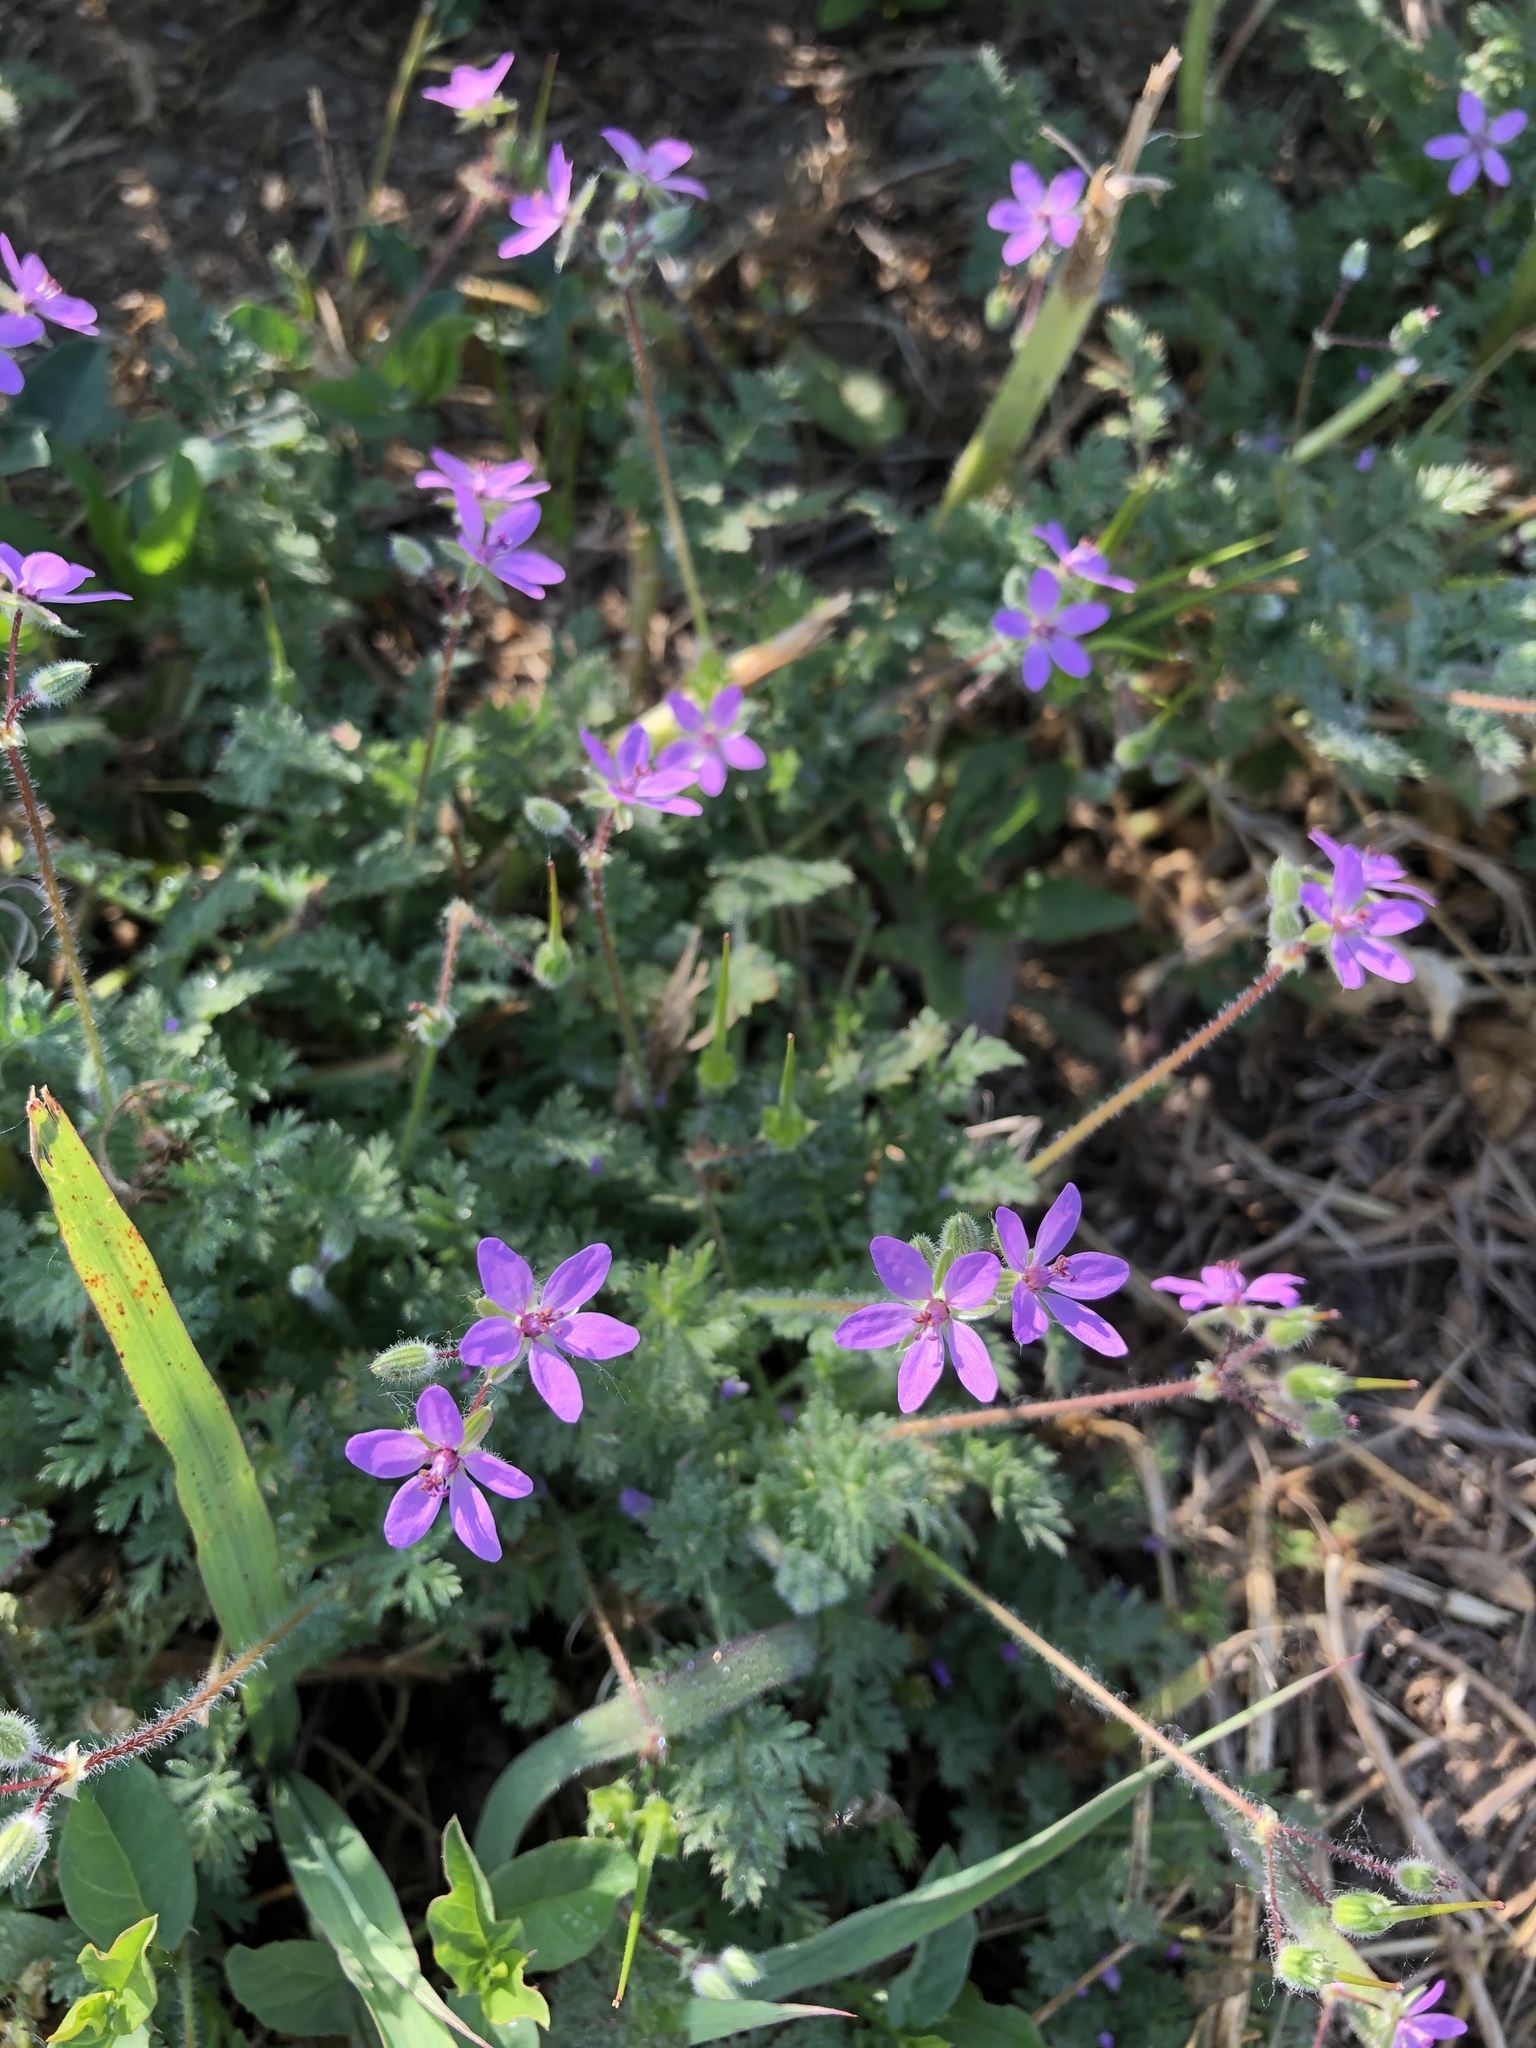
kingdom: Plantae
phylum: Tracheophyta
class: Magnoliopsida
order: Geraniales
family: Geraniaceae
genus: Erodium
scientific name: Erodium cicutarium
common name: Common stork's-bill
